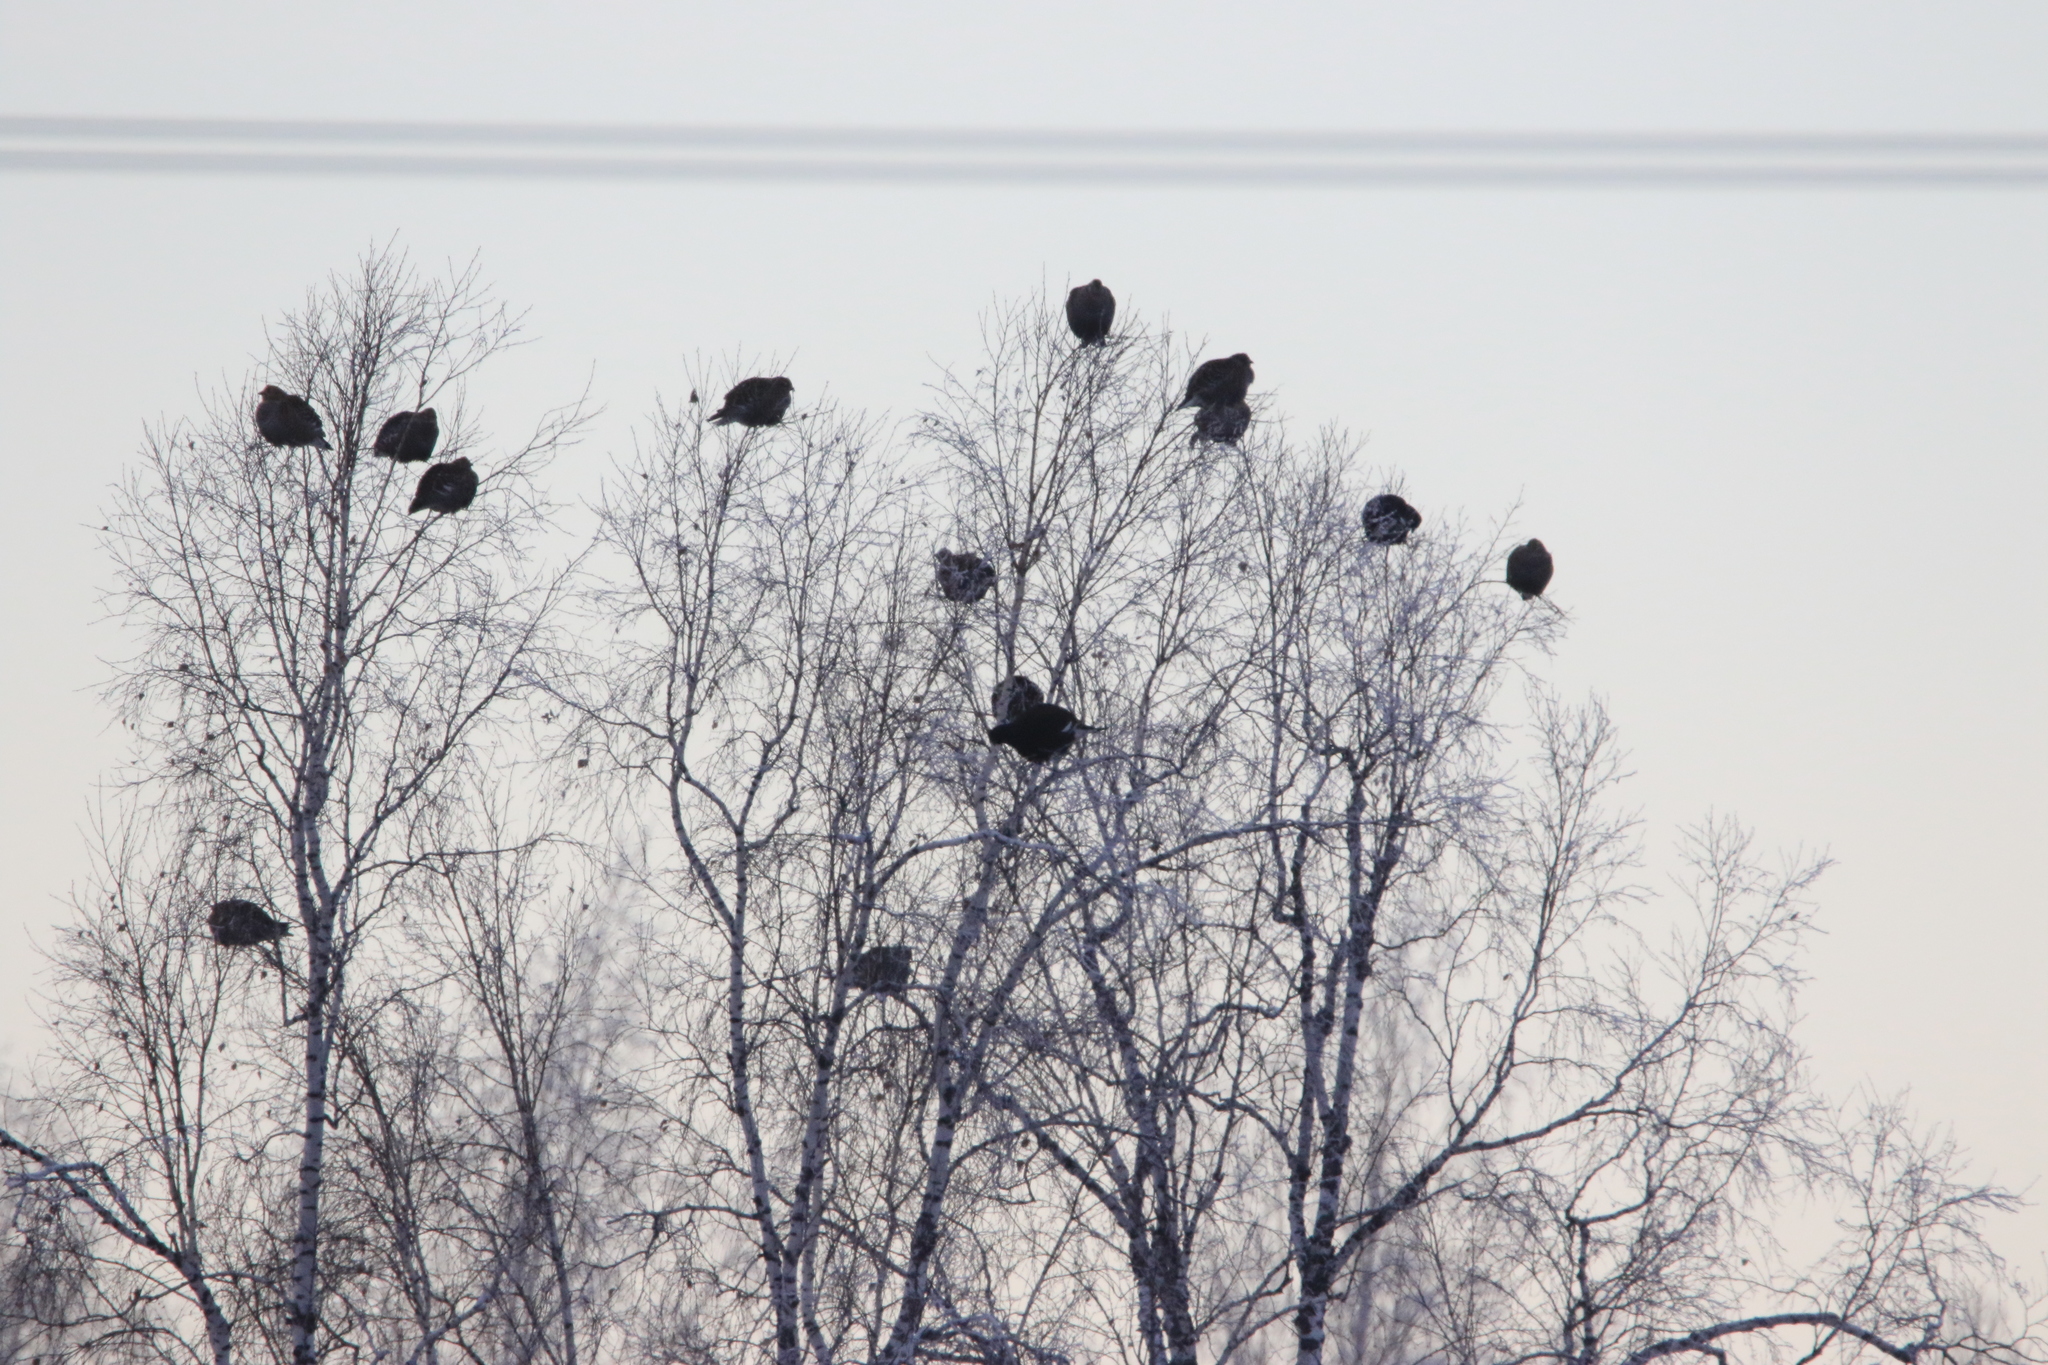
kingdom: Animalia
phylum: Chordata
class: Aves
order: Galliformes
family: Phasianidae
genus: Lyrurus
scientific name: Lyrurus tetrix
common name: Black grouse
